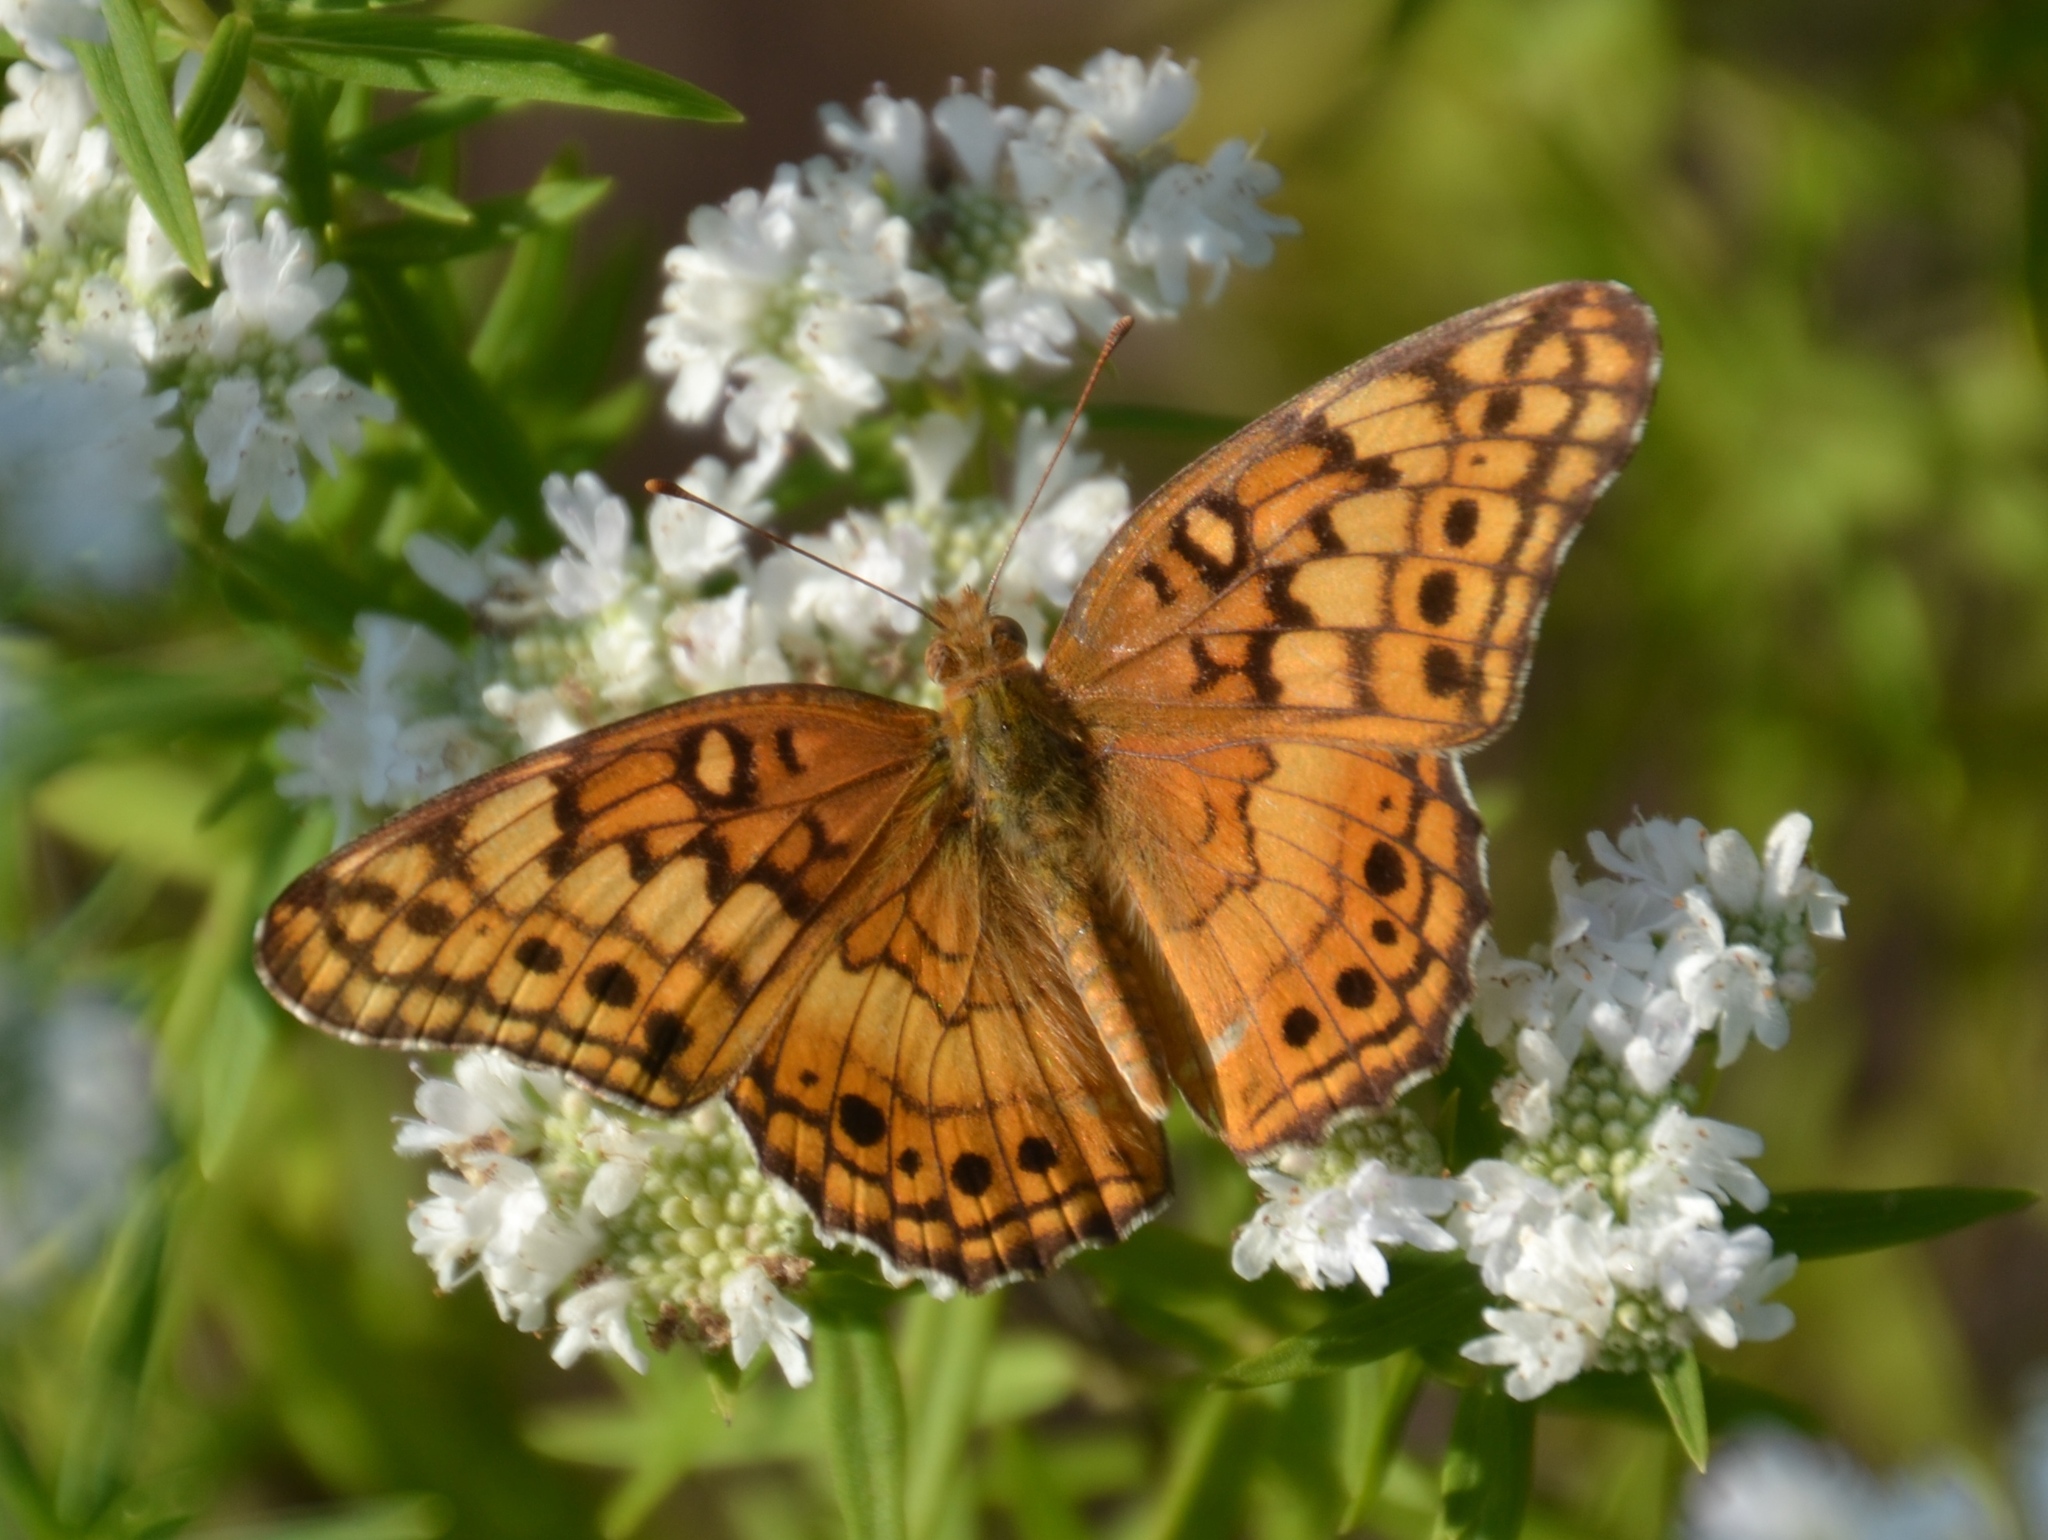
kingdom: Animalia
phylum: Arthropoda
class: Insecta
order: Lepidoptera
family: Nymphalidae
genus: Euptoieta
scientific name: Euptoieta claudia
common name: Variegated fritillary
